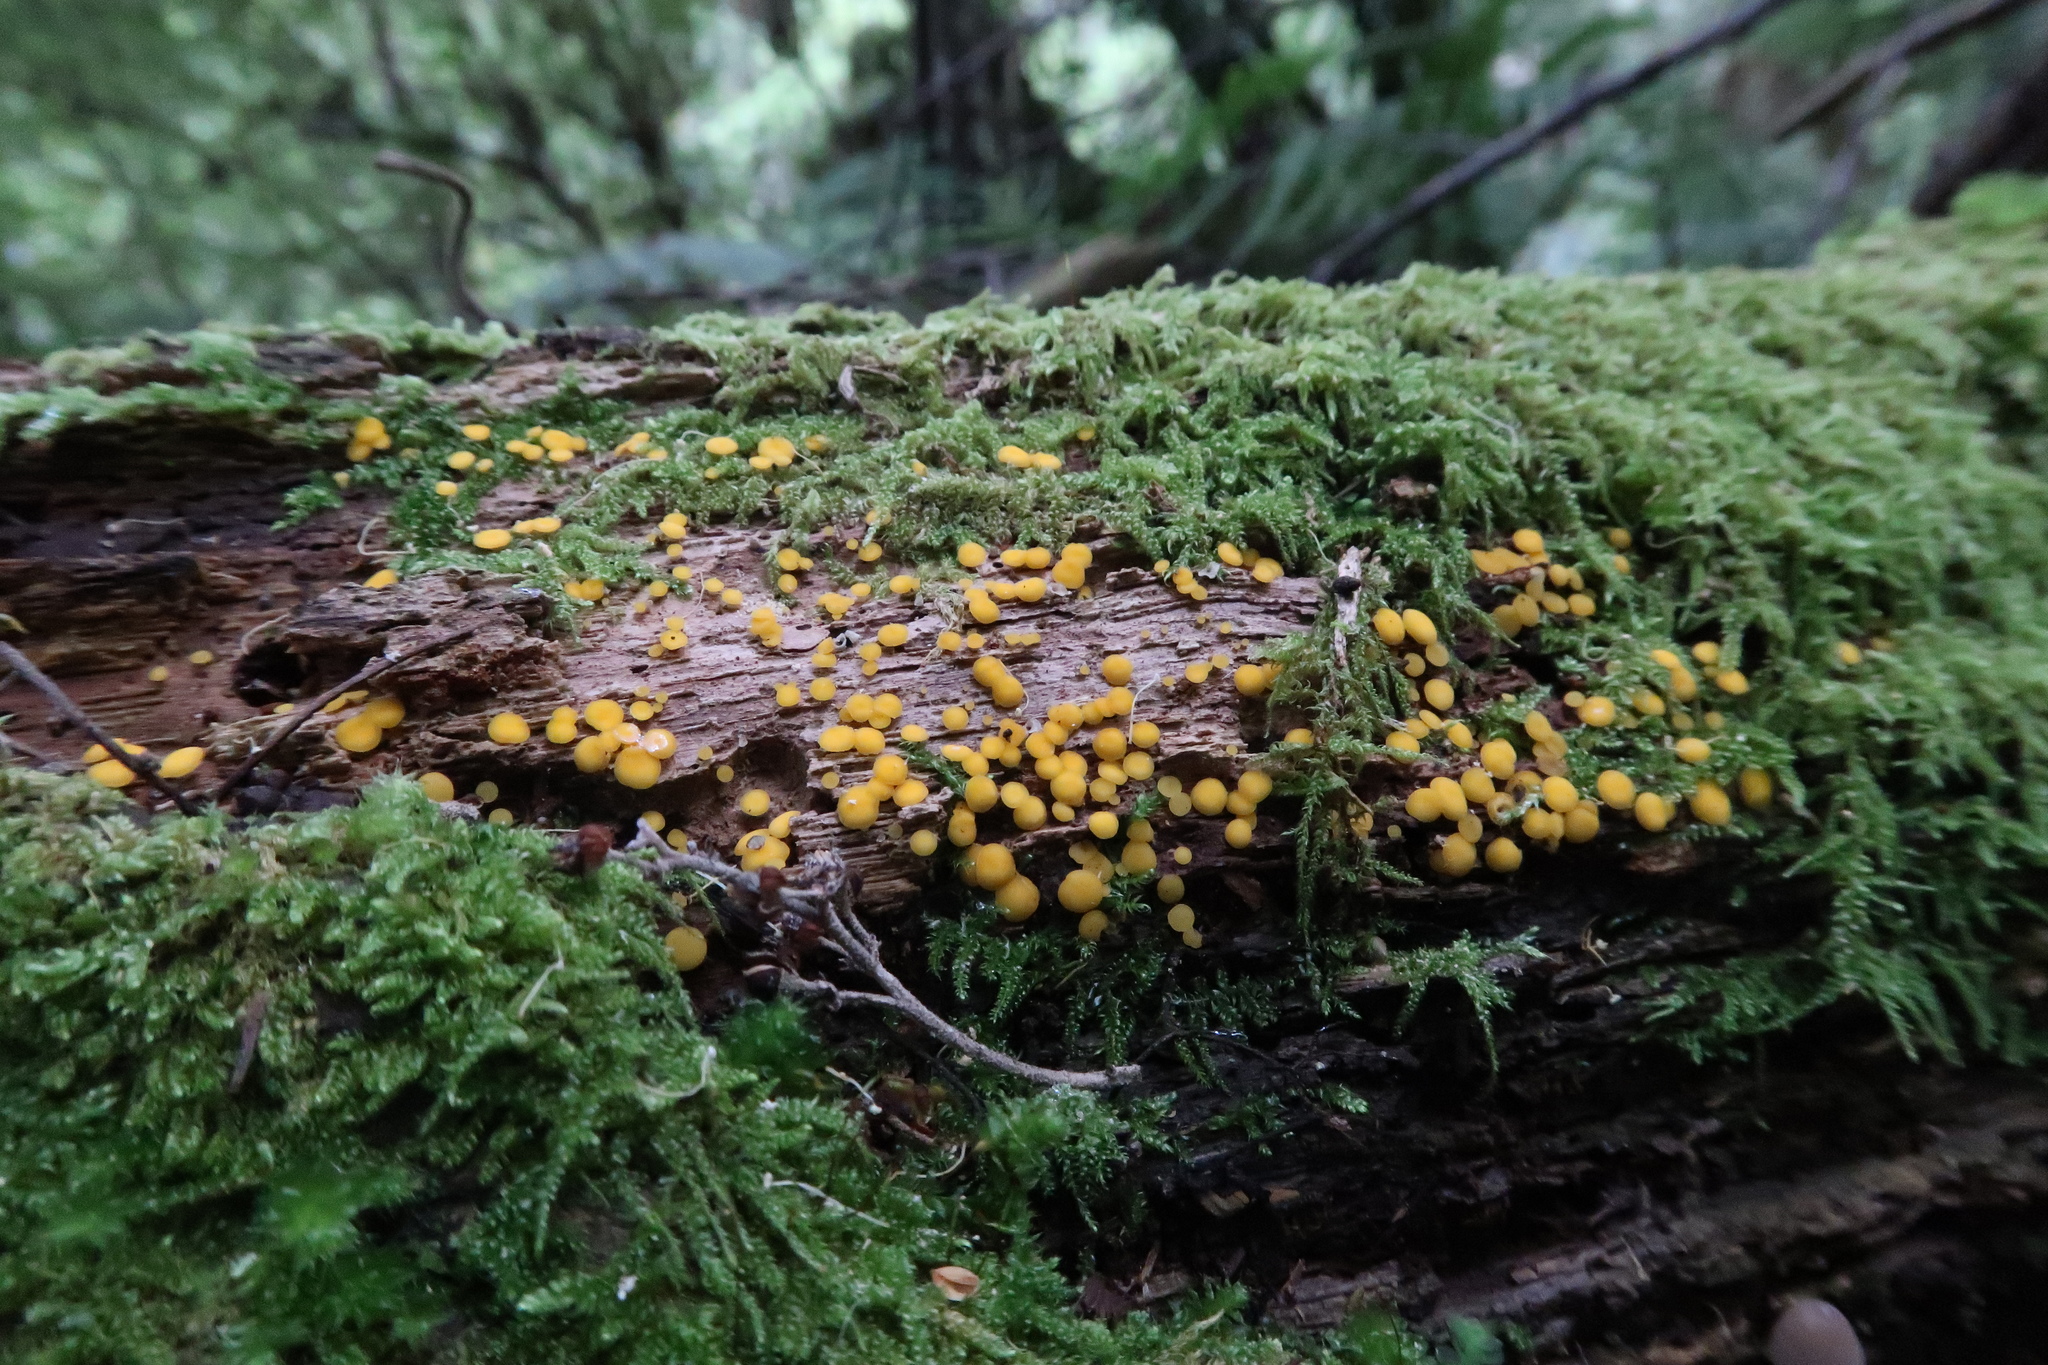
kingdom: Fungi
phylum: Ascomycota
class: Leotiomycetes
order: Helotiales
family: Pezizellaceae
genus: Calycina
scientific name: Calycina citrina
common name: Yellow fairy cups
